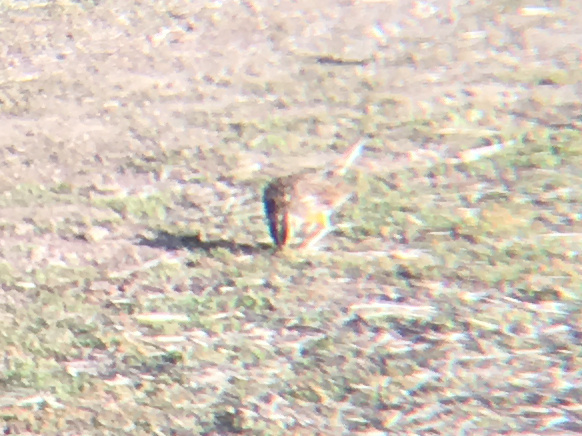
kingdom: Animalia
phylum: Chordata
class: Aves
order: Passeriformes
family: Icteridae
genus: Sturnella
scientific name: Sturnella neglecta
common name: Western meadowlark
